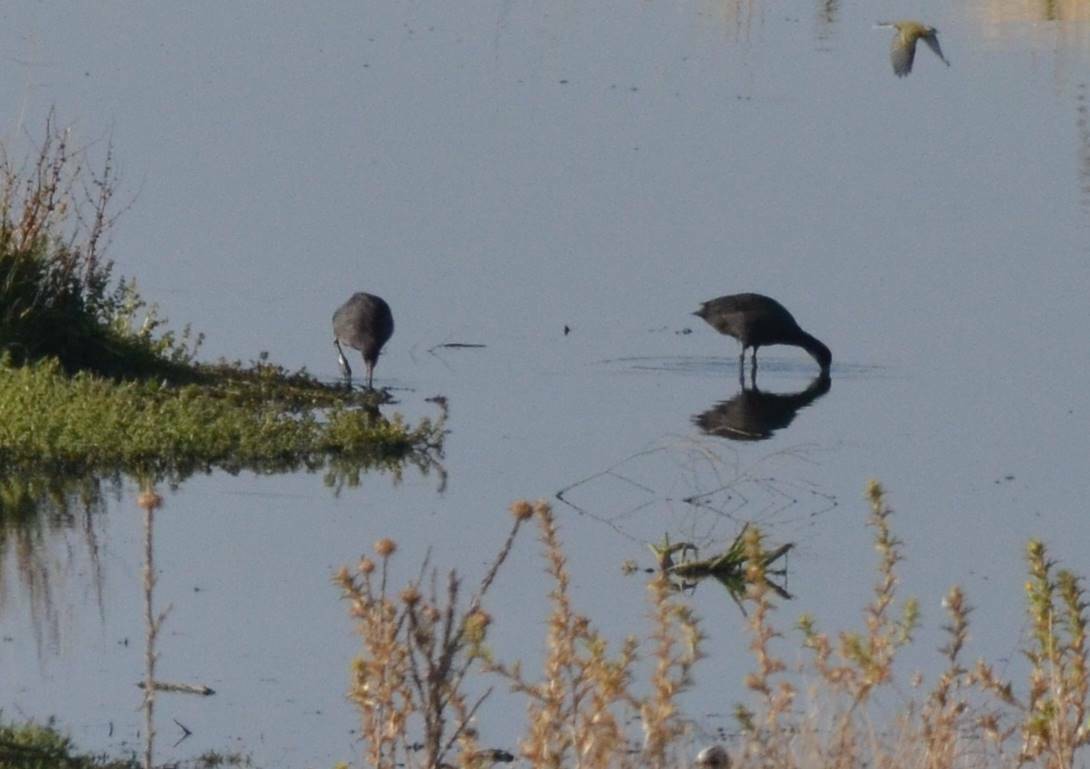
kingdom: Animalia
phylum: Chordata
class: Aves
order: Gruiformes
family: Rallidae
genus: Fulica
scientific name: Fulica atra
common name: Eurasian coot
